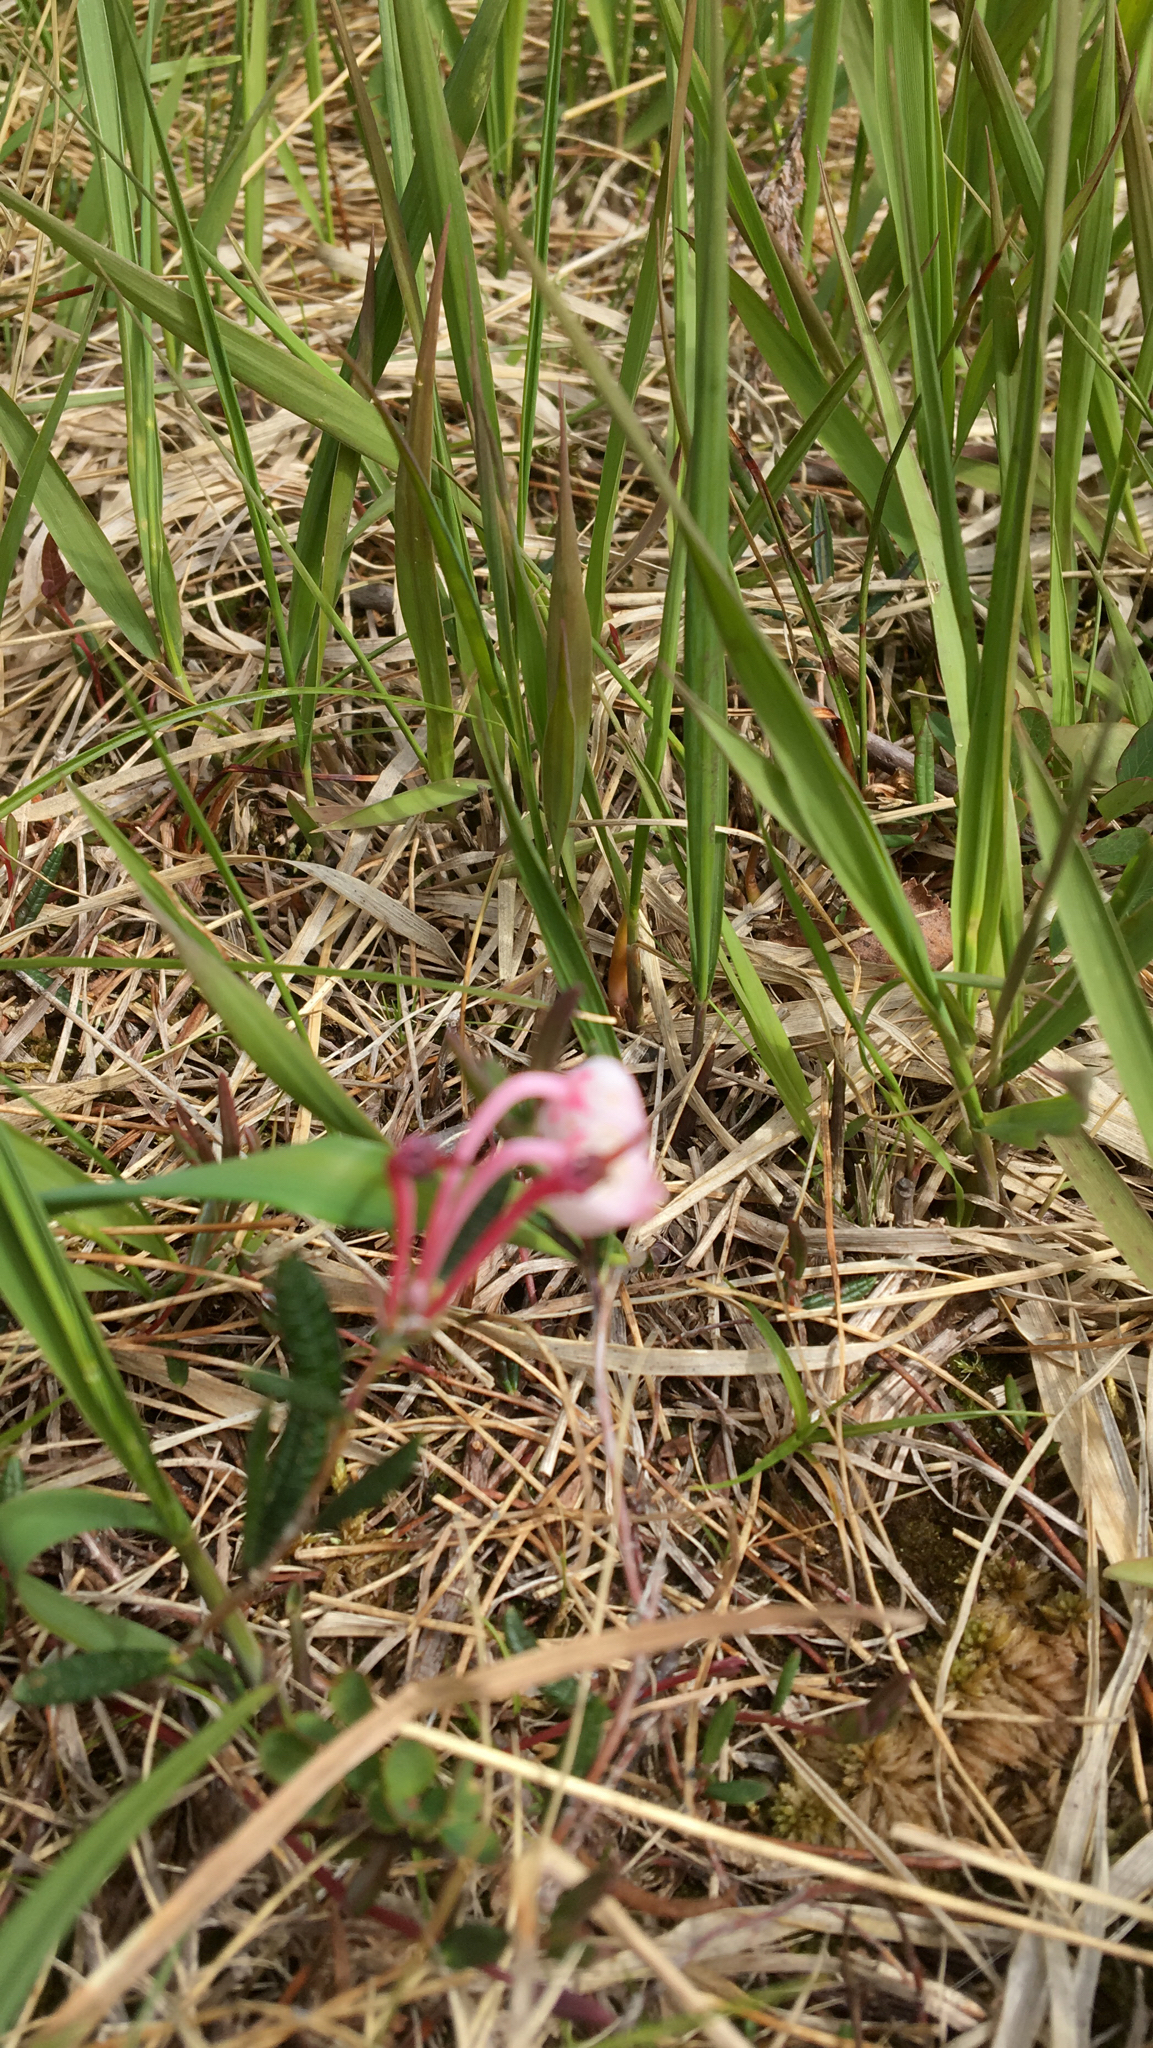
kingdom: Plantae
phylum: Tracheophyta
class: Magnoliopsida
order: Ericales
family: Ericaceae
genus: Andromeda
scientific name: Andromeda polifolia
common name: Bog-rosemary
